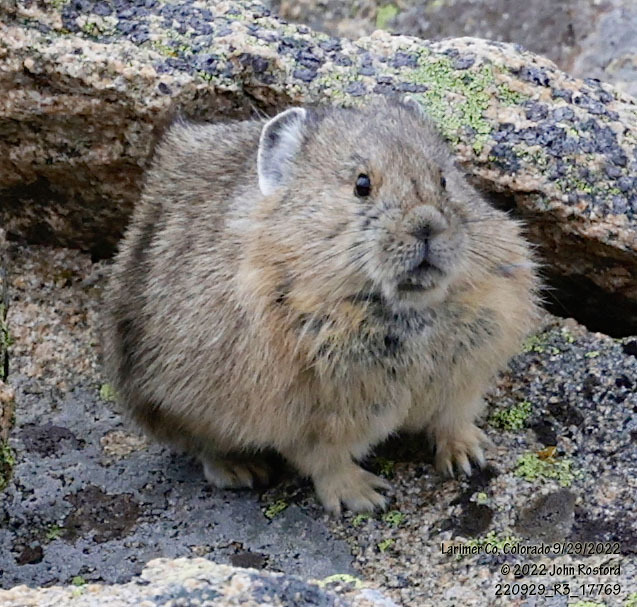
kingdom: Animalia
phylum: Chordata
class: Mammalia
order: Lagomorpha
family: Ochotonidae
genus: Ochotona
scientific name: Ochotona princeps
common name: American pika
